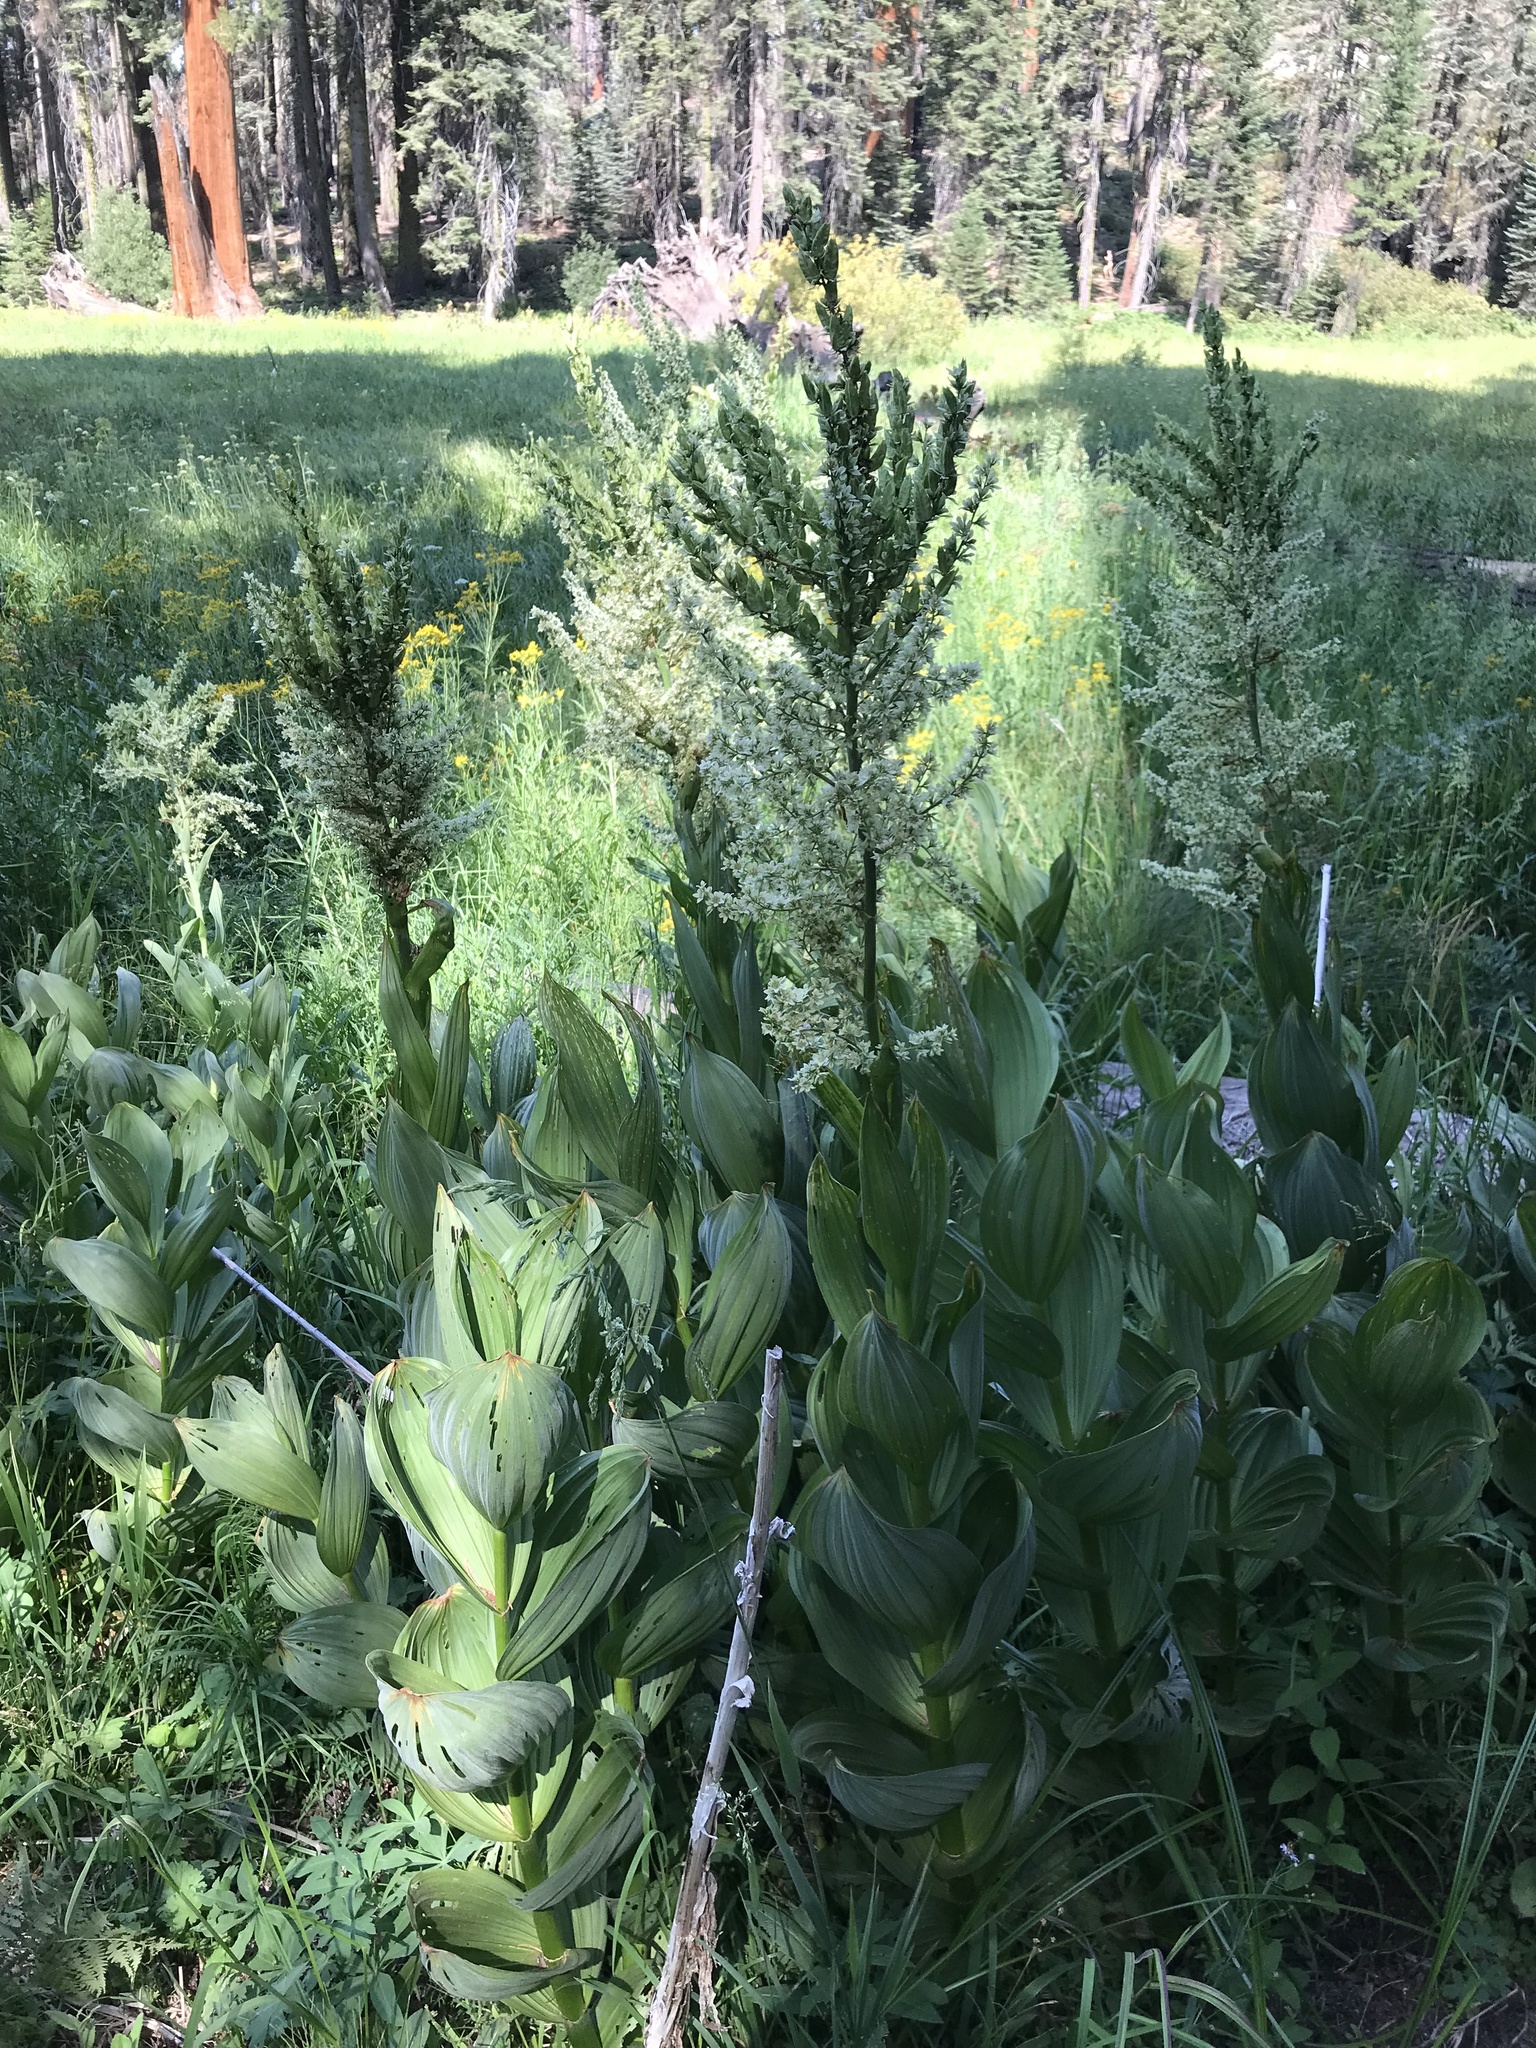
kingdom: Plantae
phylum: Tracheophyta
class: Liliopsida
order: Liliales
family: Melanthiaceae
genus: Veratrum
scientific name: Veratrum californicum
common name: California veratrum
